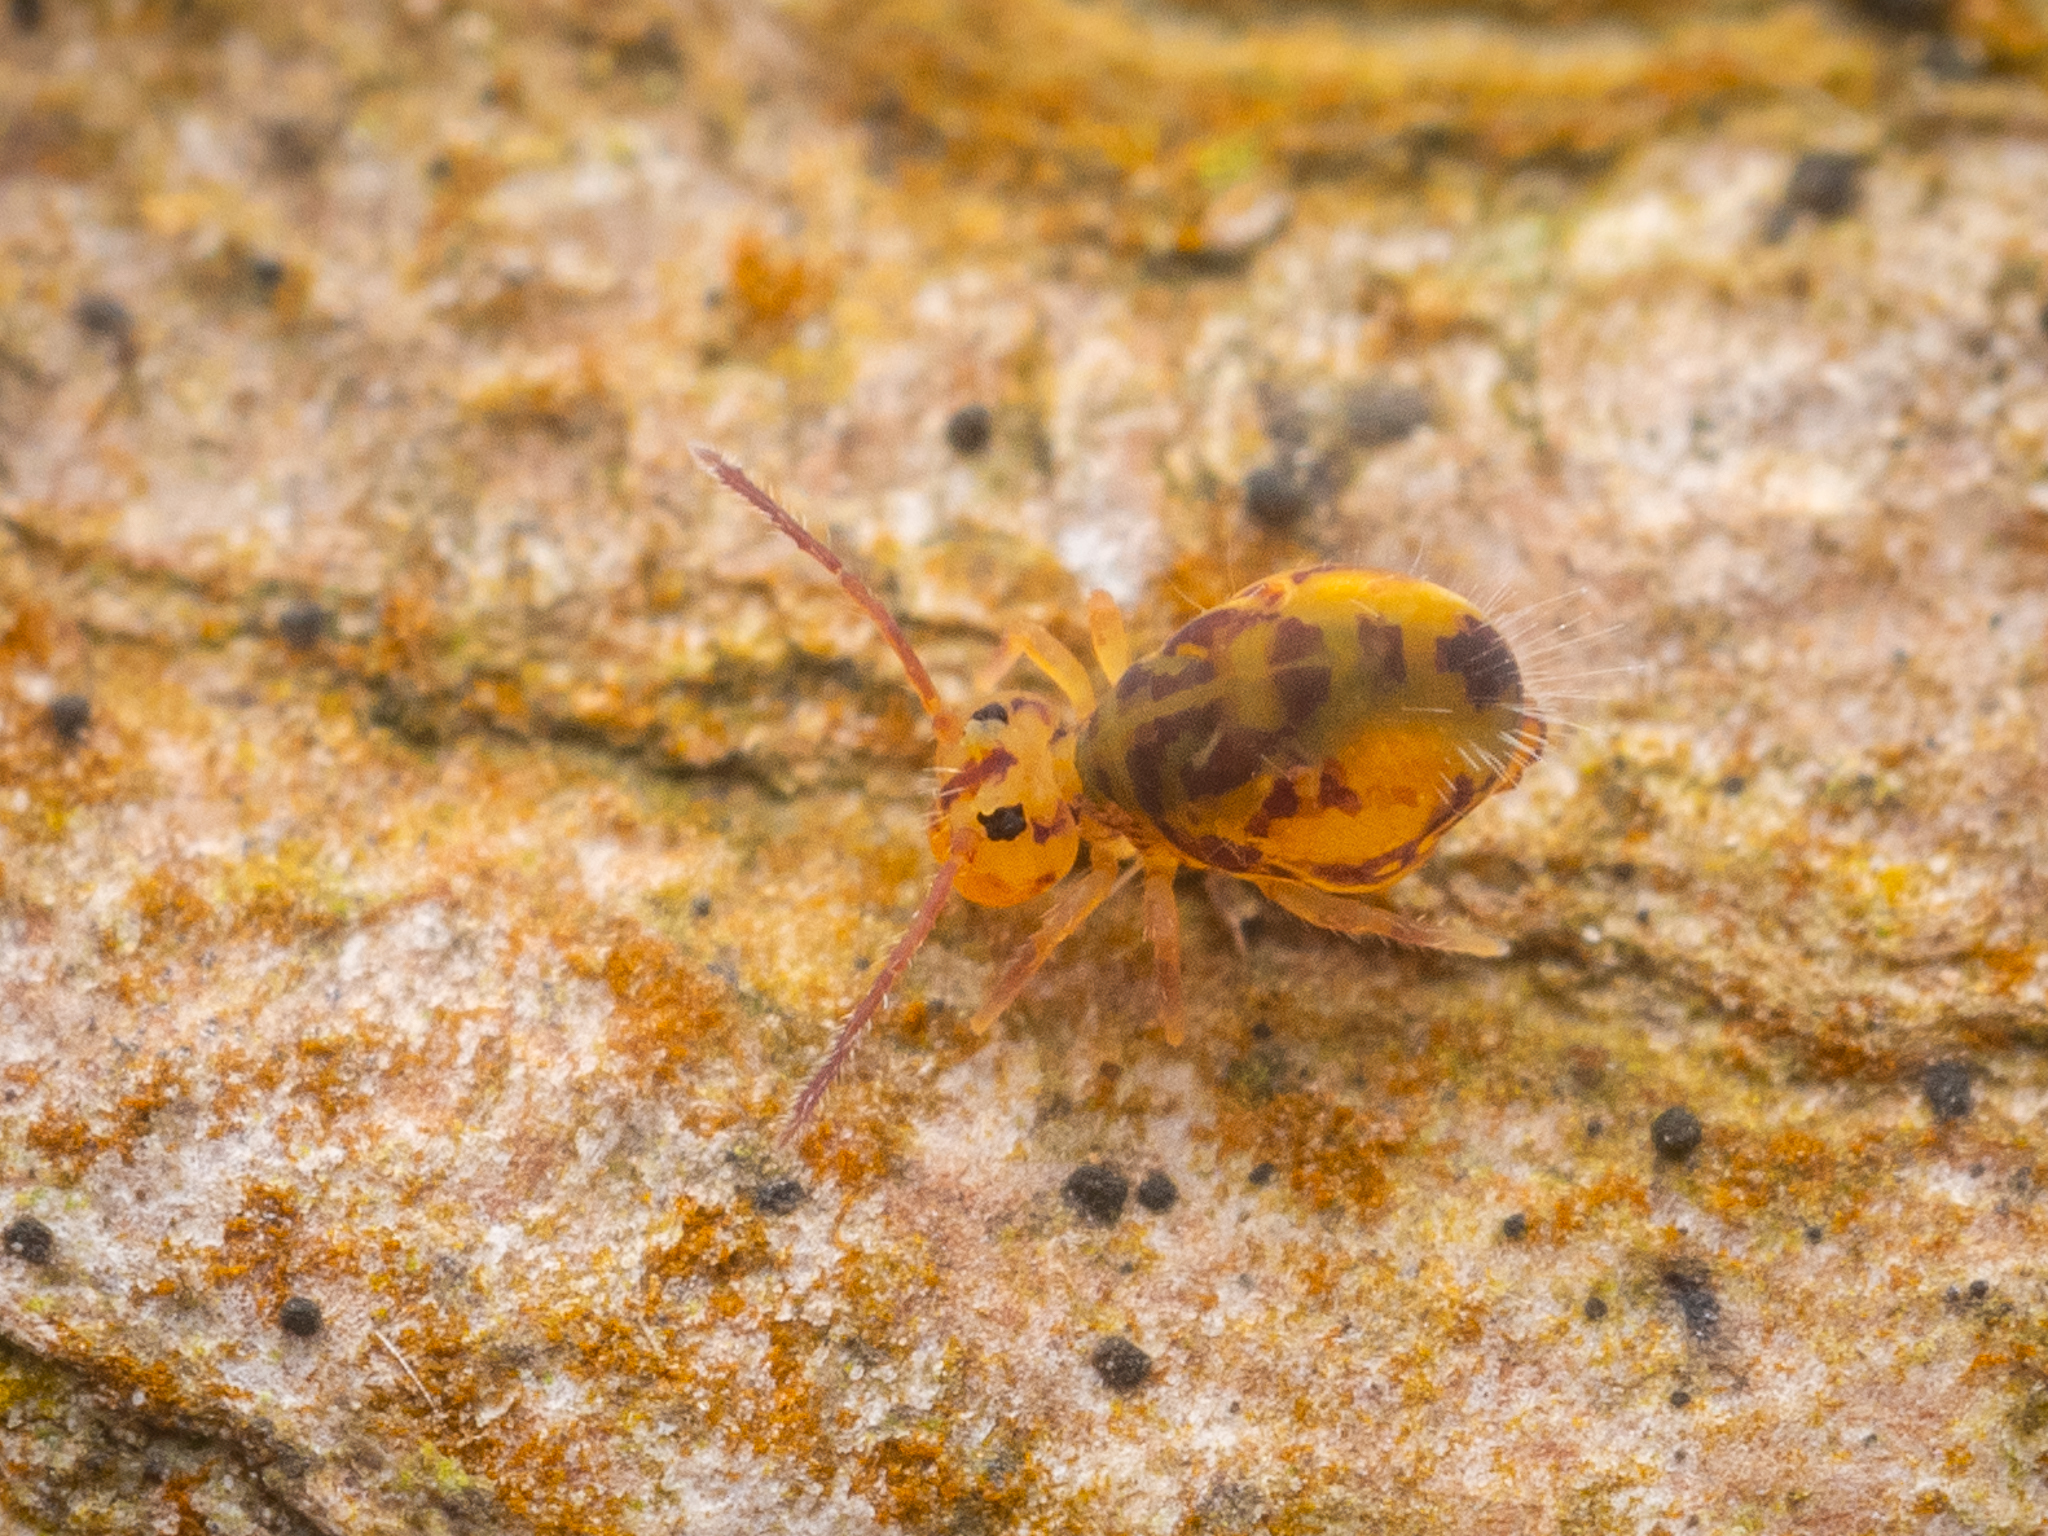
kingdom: Animalia
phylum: Arthropoda
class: Collembola
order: Symphypleona
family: Dicyrtomidae
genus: Dicyrtomina
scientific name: Dicyrtomina ornata
